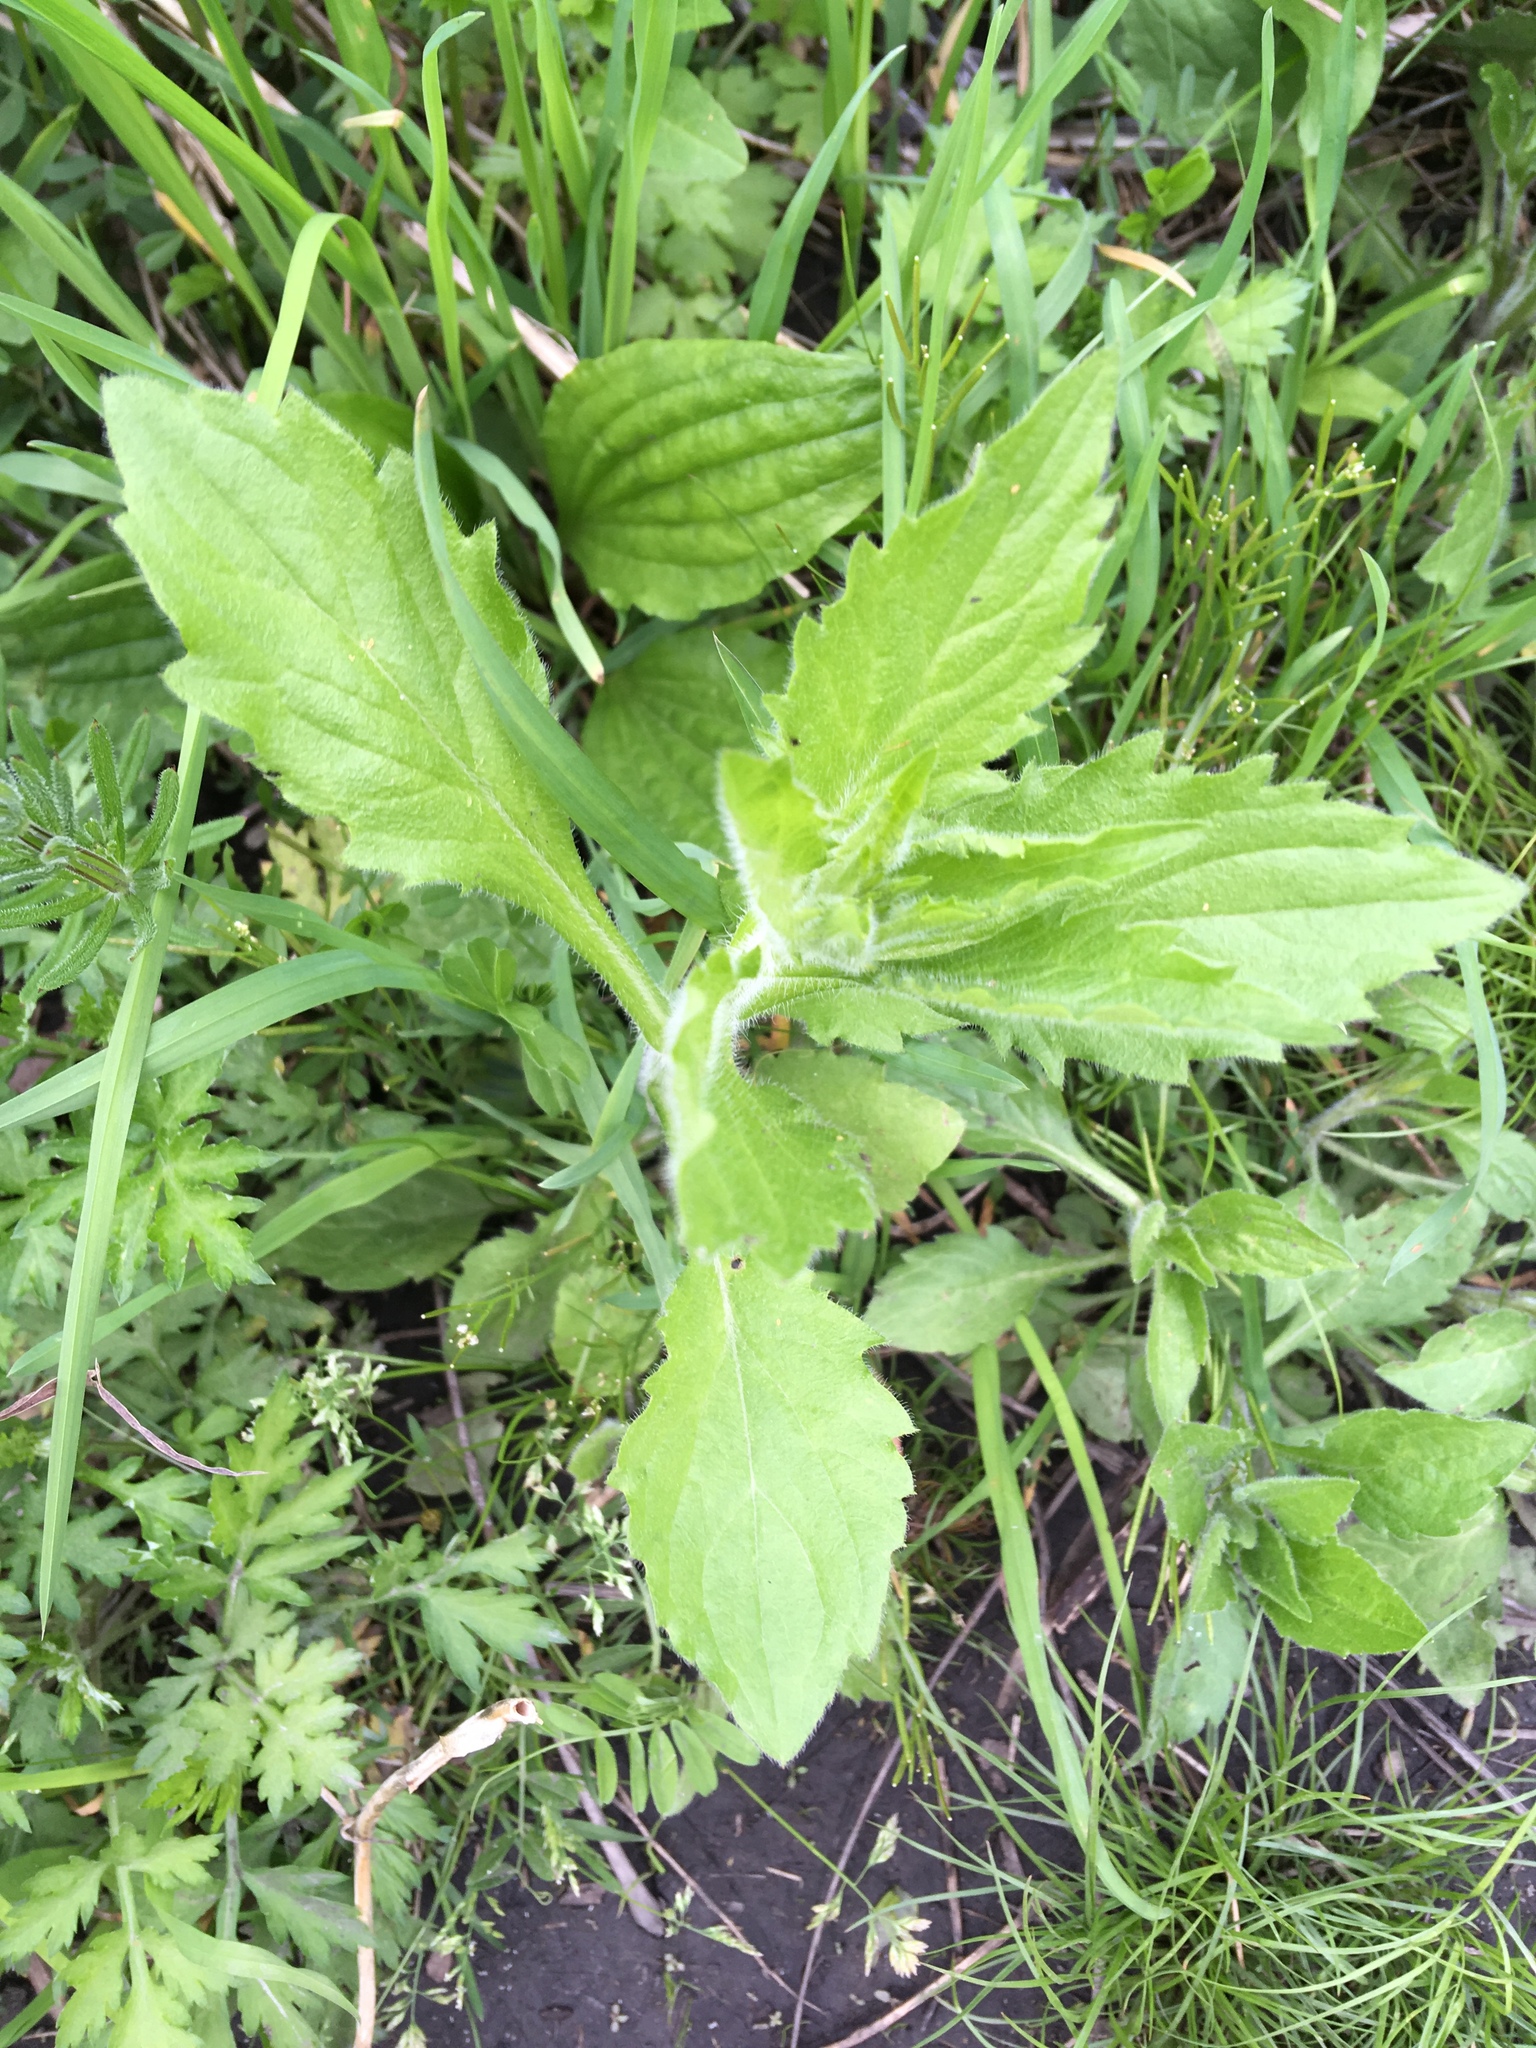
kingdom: Plantae
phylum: Tracheophyta
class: Magnoliopsida
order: Asterales
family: Asteraceae
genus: Erigeron
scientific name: Erigeron annuus
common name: Tall fleabane
